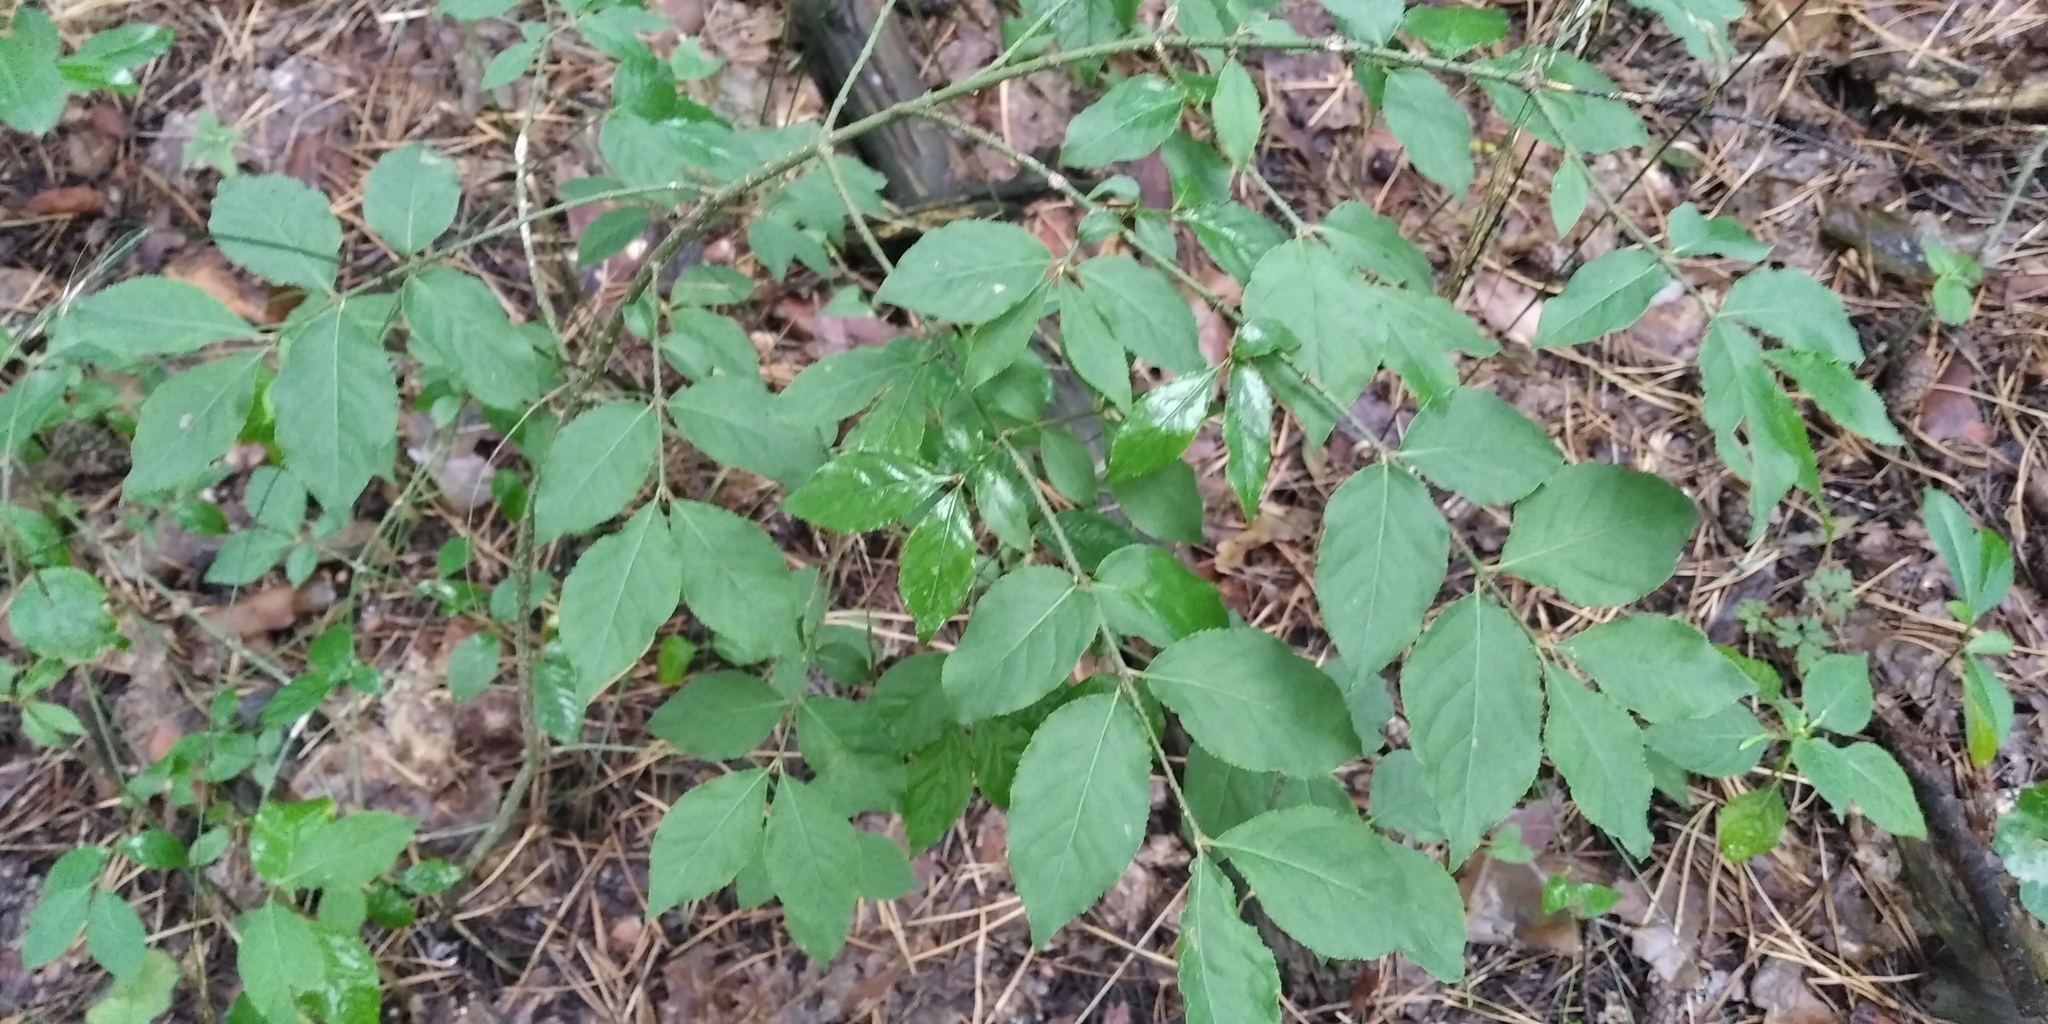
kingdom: Plantae
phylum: Tracheophyta
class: Magnoliopsida
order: Celastrales
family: Celastraceae
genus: Euonymus
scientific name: Euonymus verrucosus
